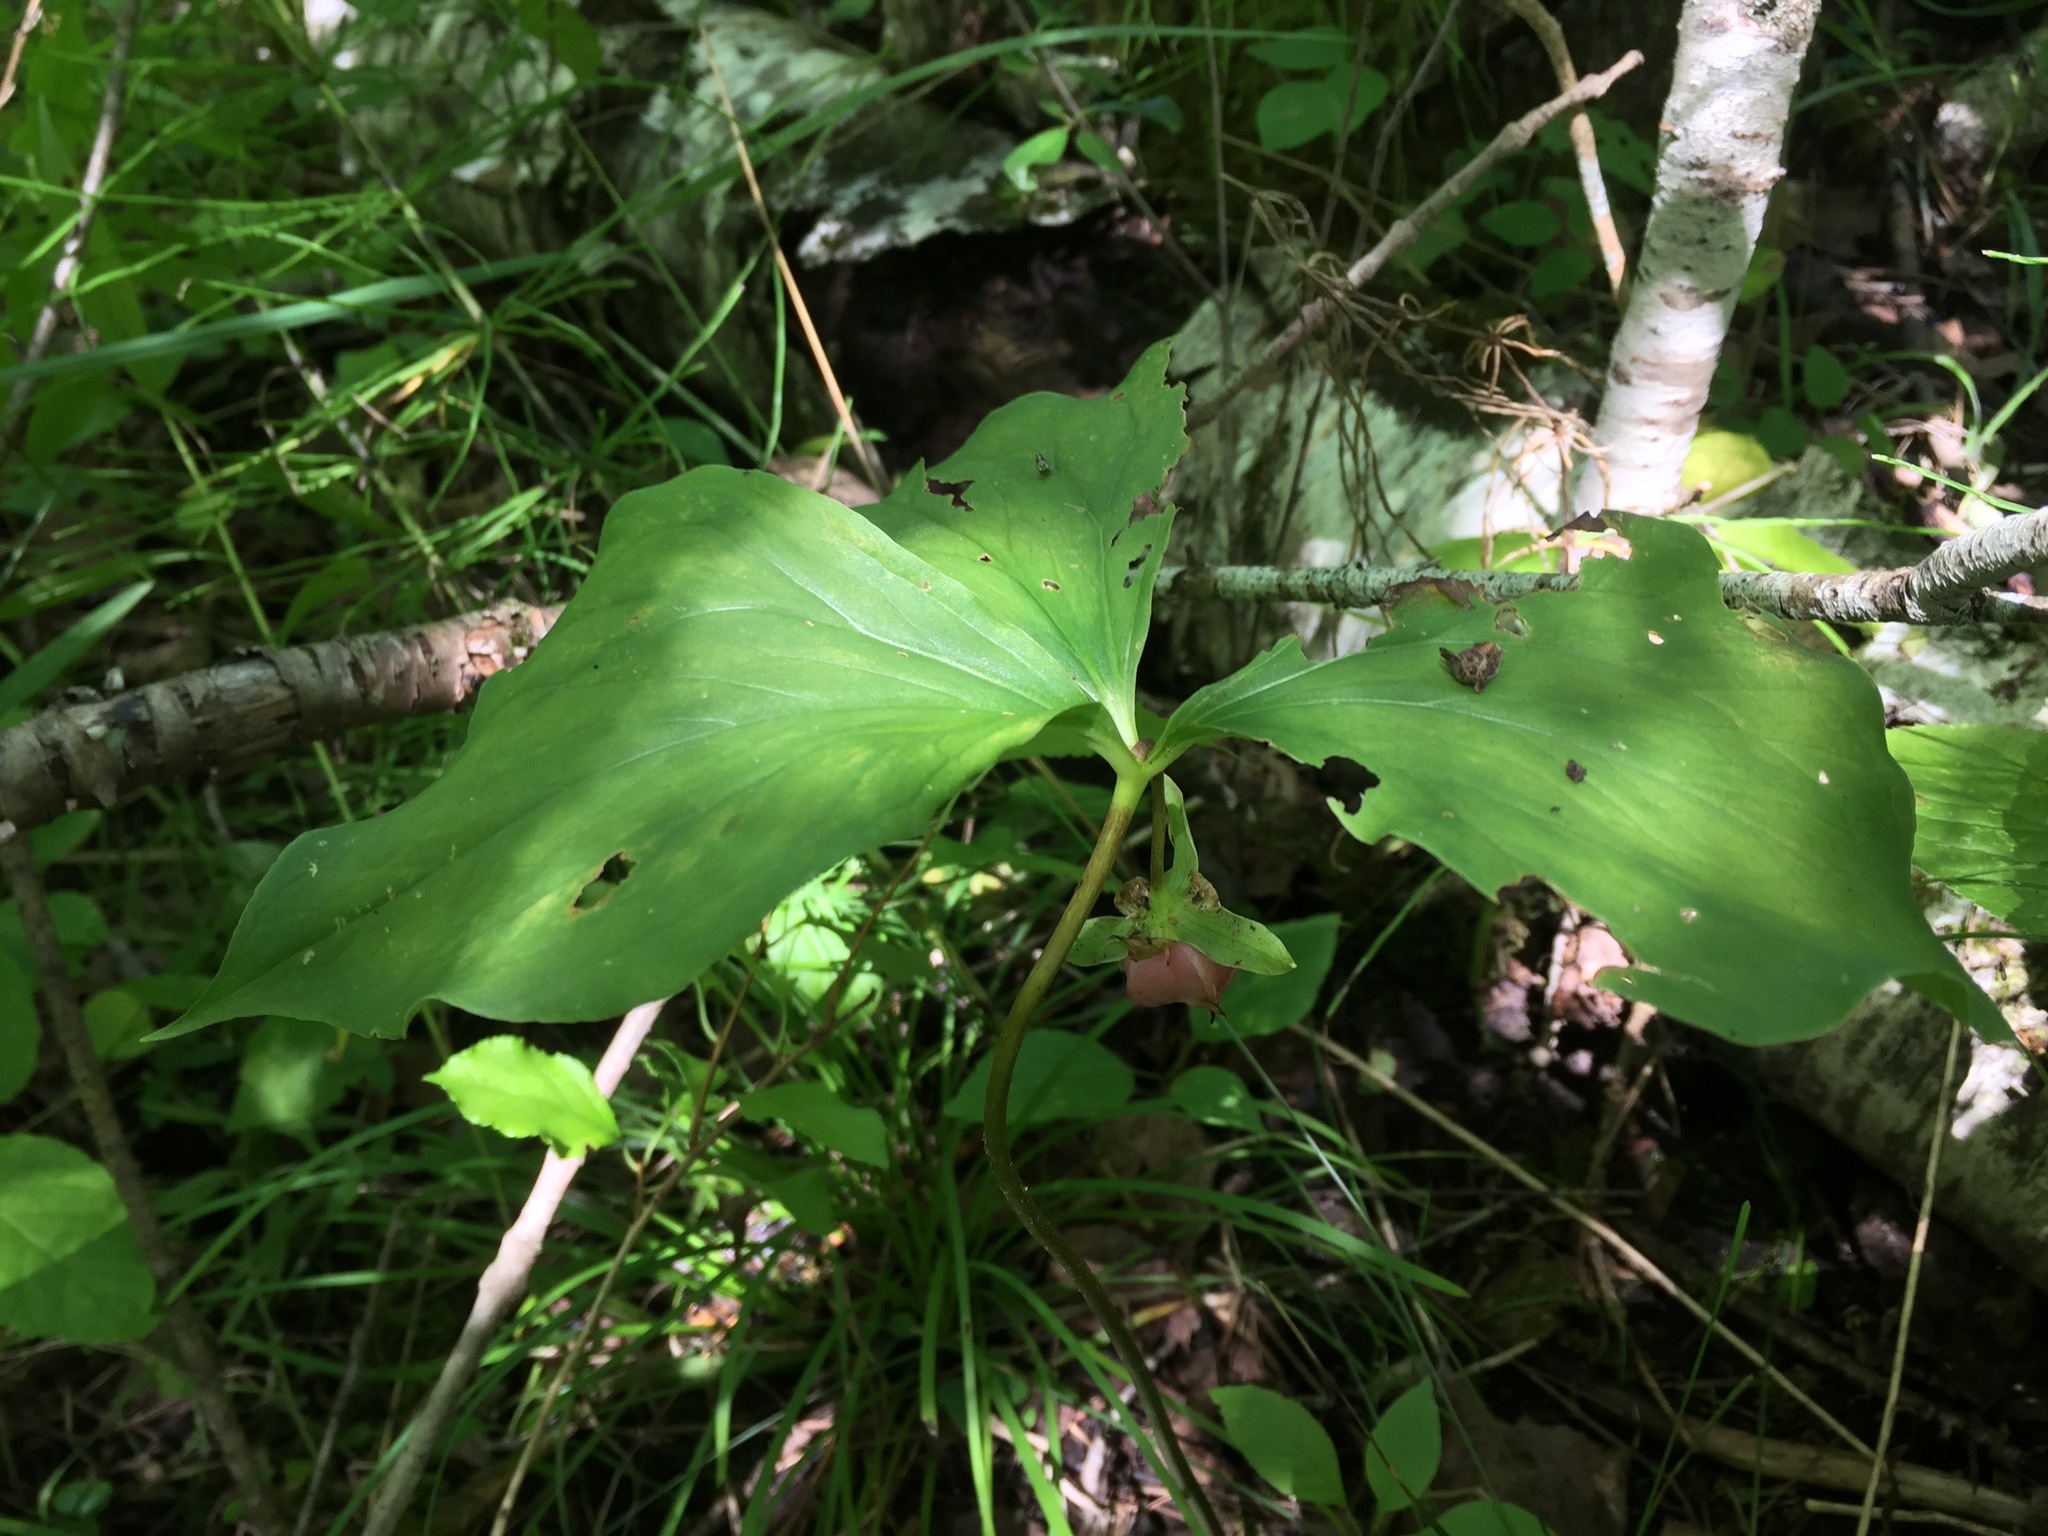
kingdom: Plantae
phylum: Tracheophyta
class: Liliopsida
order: Liliales
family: Melanthiaceae
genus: Trillium
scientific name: Trillium cernuum
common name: Nodding trillium
